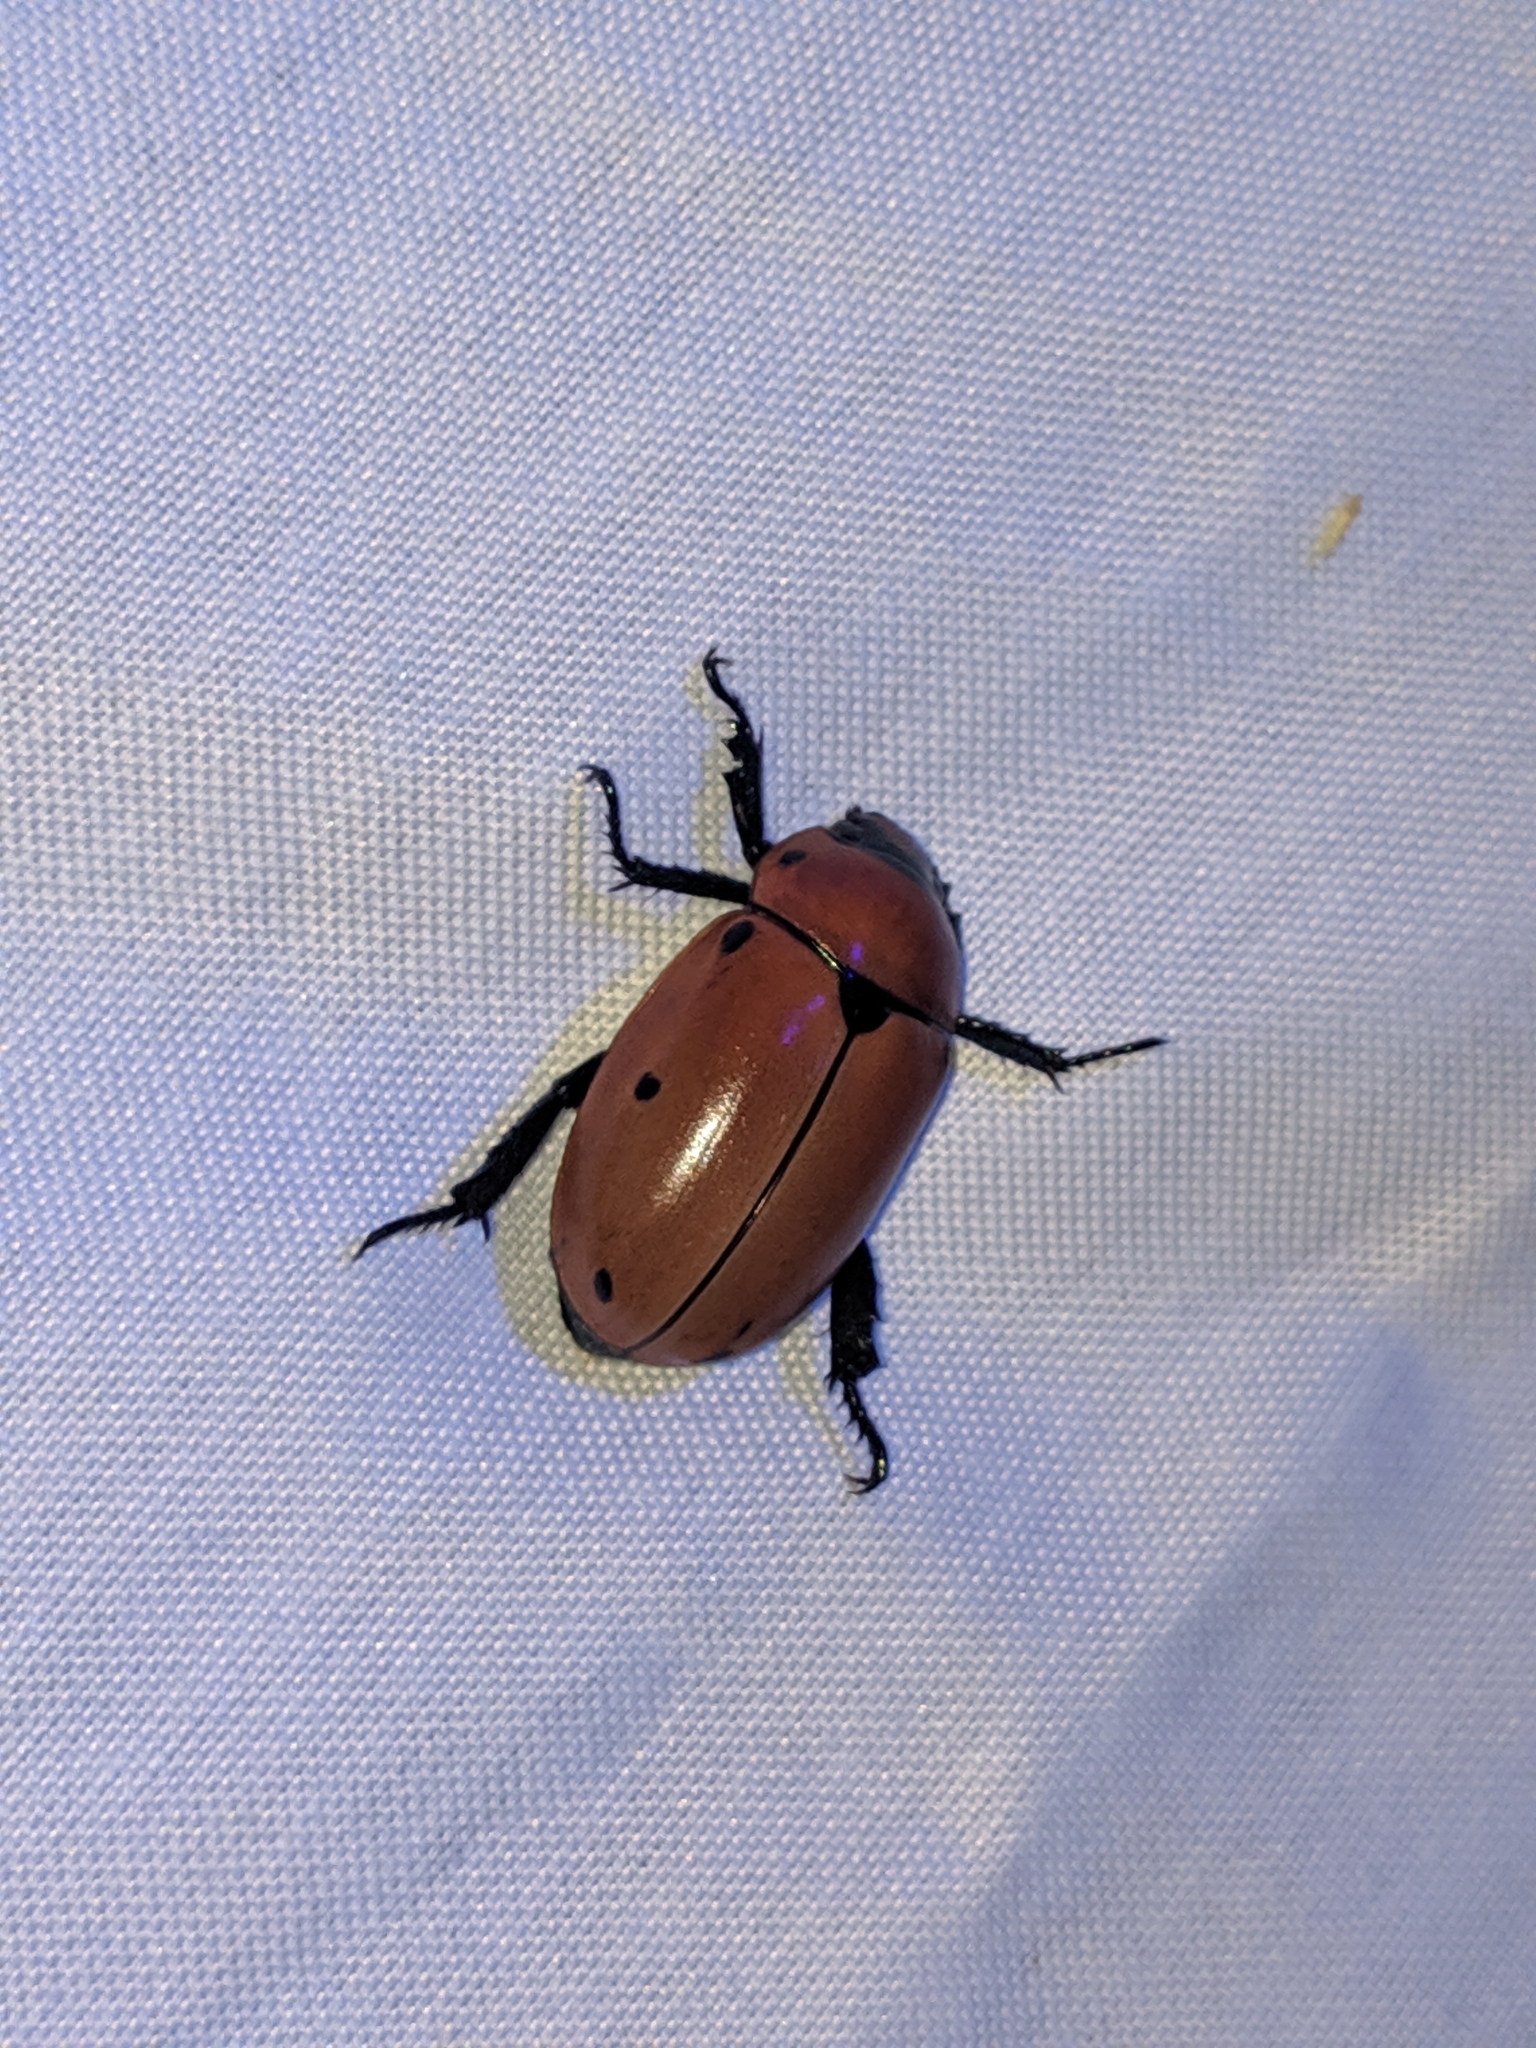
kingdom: Animalia
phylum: Arthropoda
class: Insecta
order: Coleoptera
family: Scarabaeidae
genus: Pelidnota
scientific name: Pelidnota punctata
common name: Grapevine beetle
